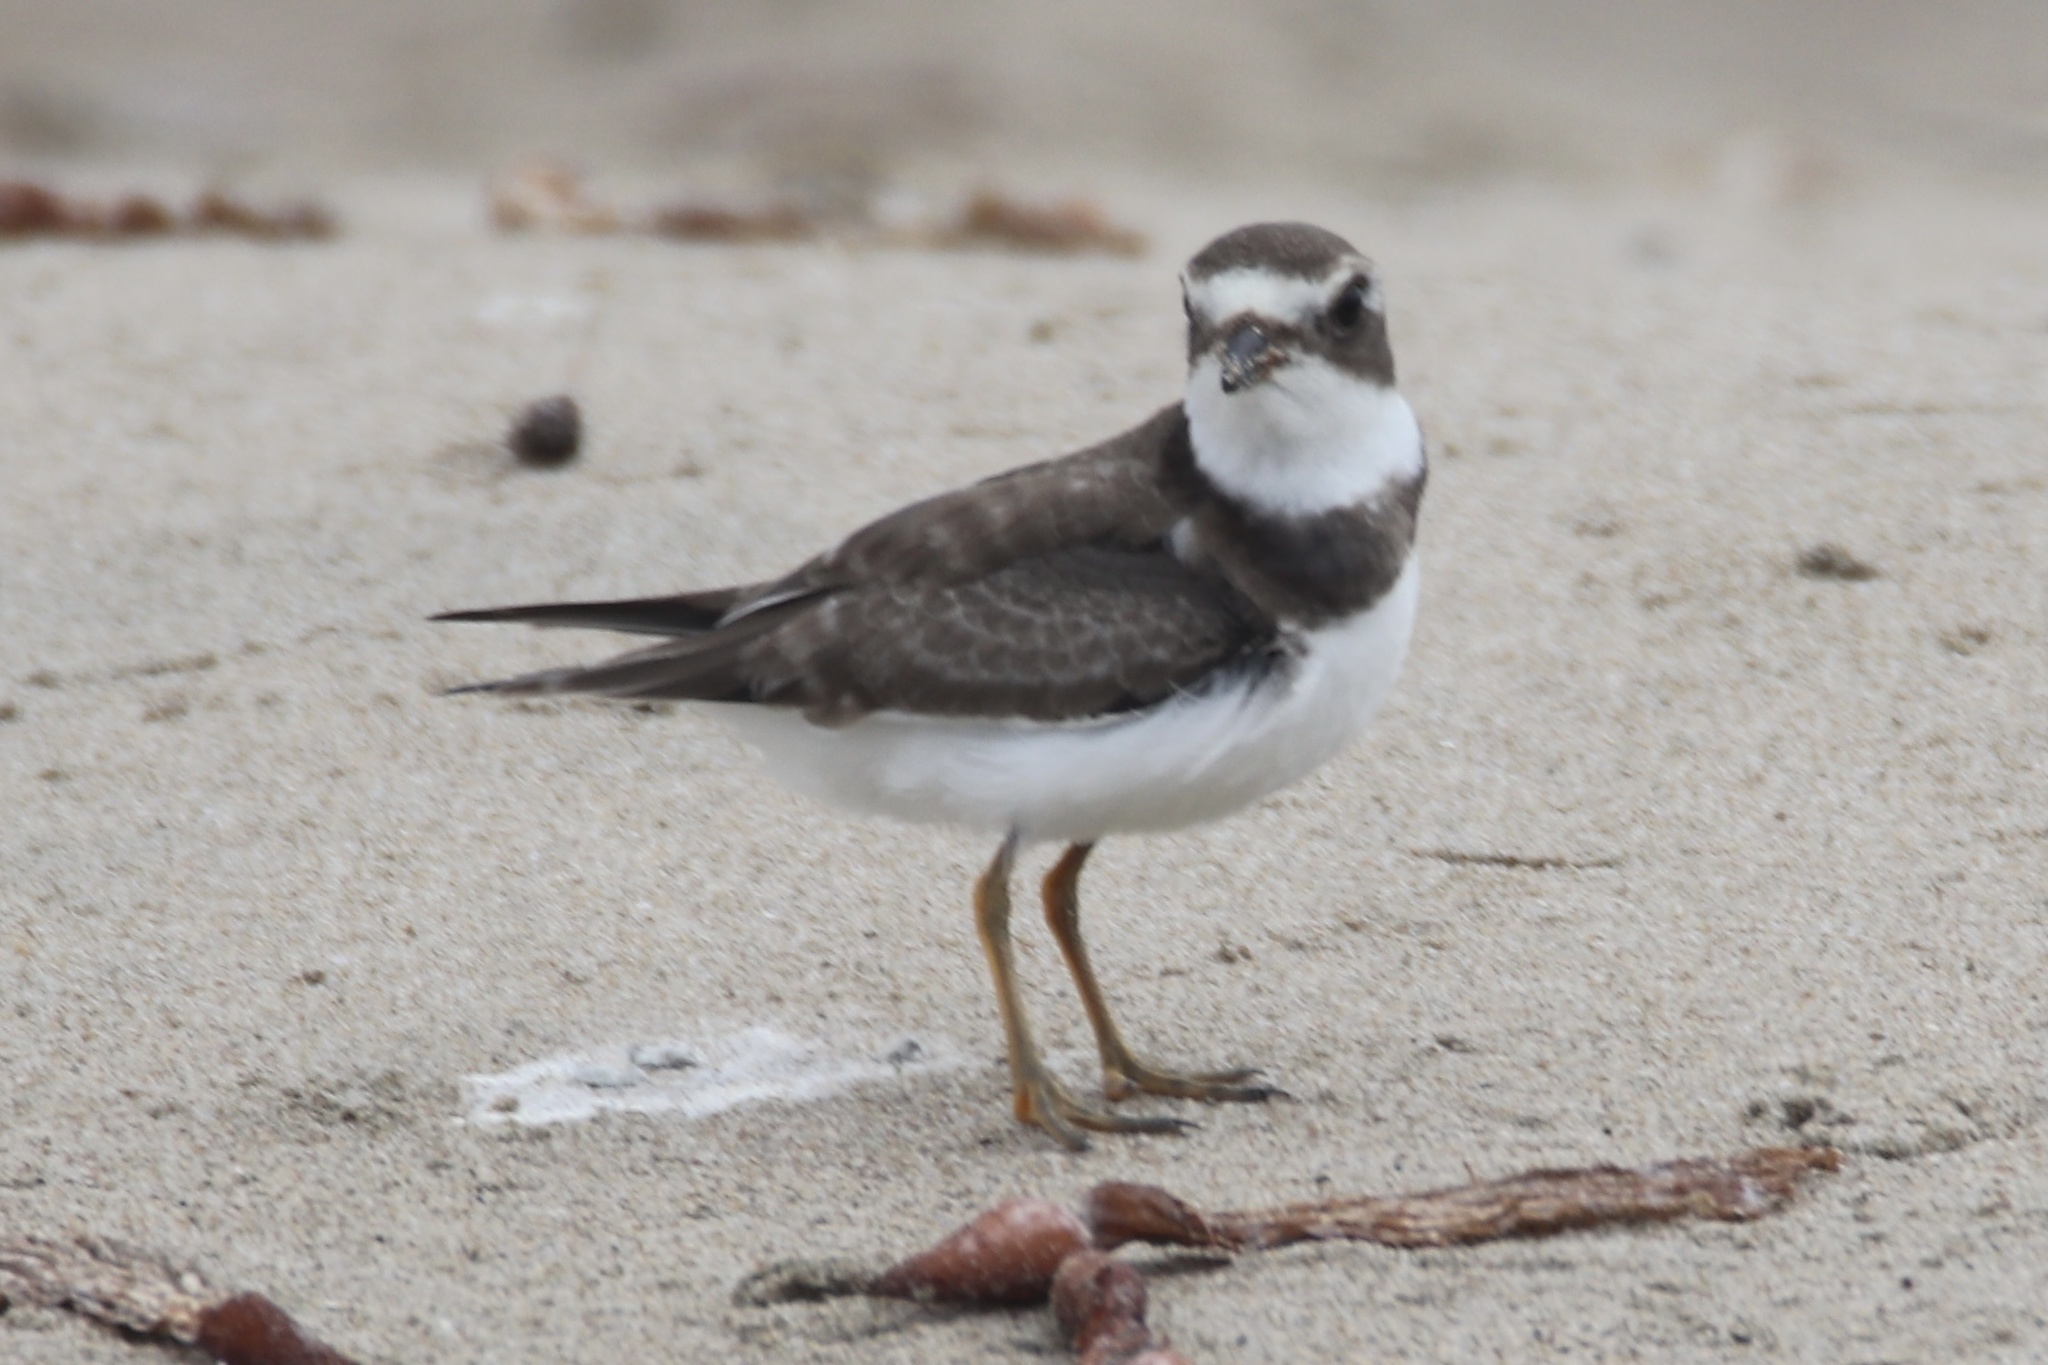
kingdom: Animalia
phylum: Chordata
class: Aves
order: Charadriiformes
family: Charadriidae
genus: Charadrius
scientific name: Charadrius semipalmatus
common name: Semipalmated plover
